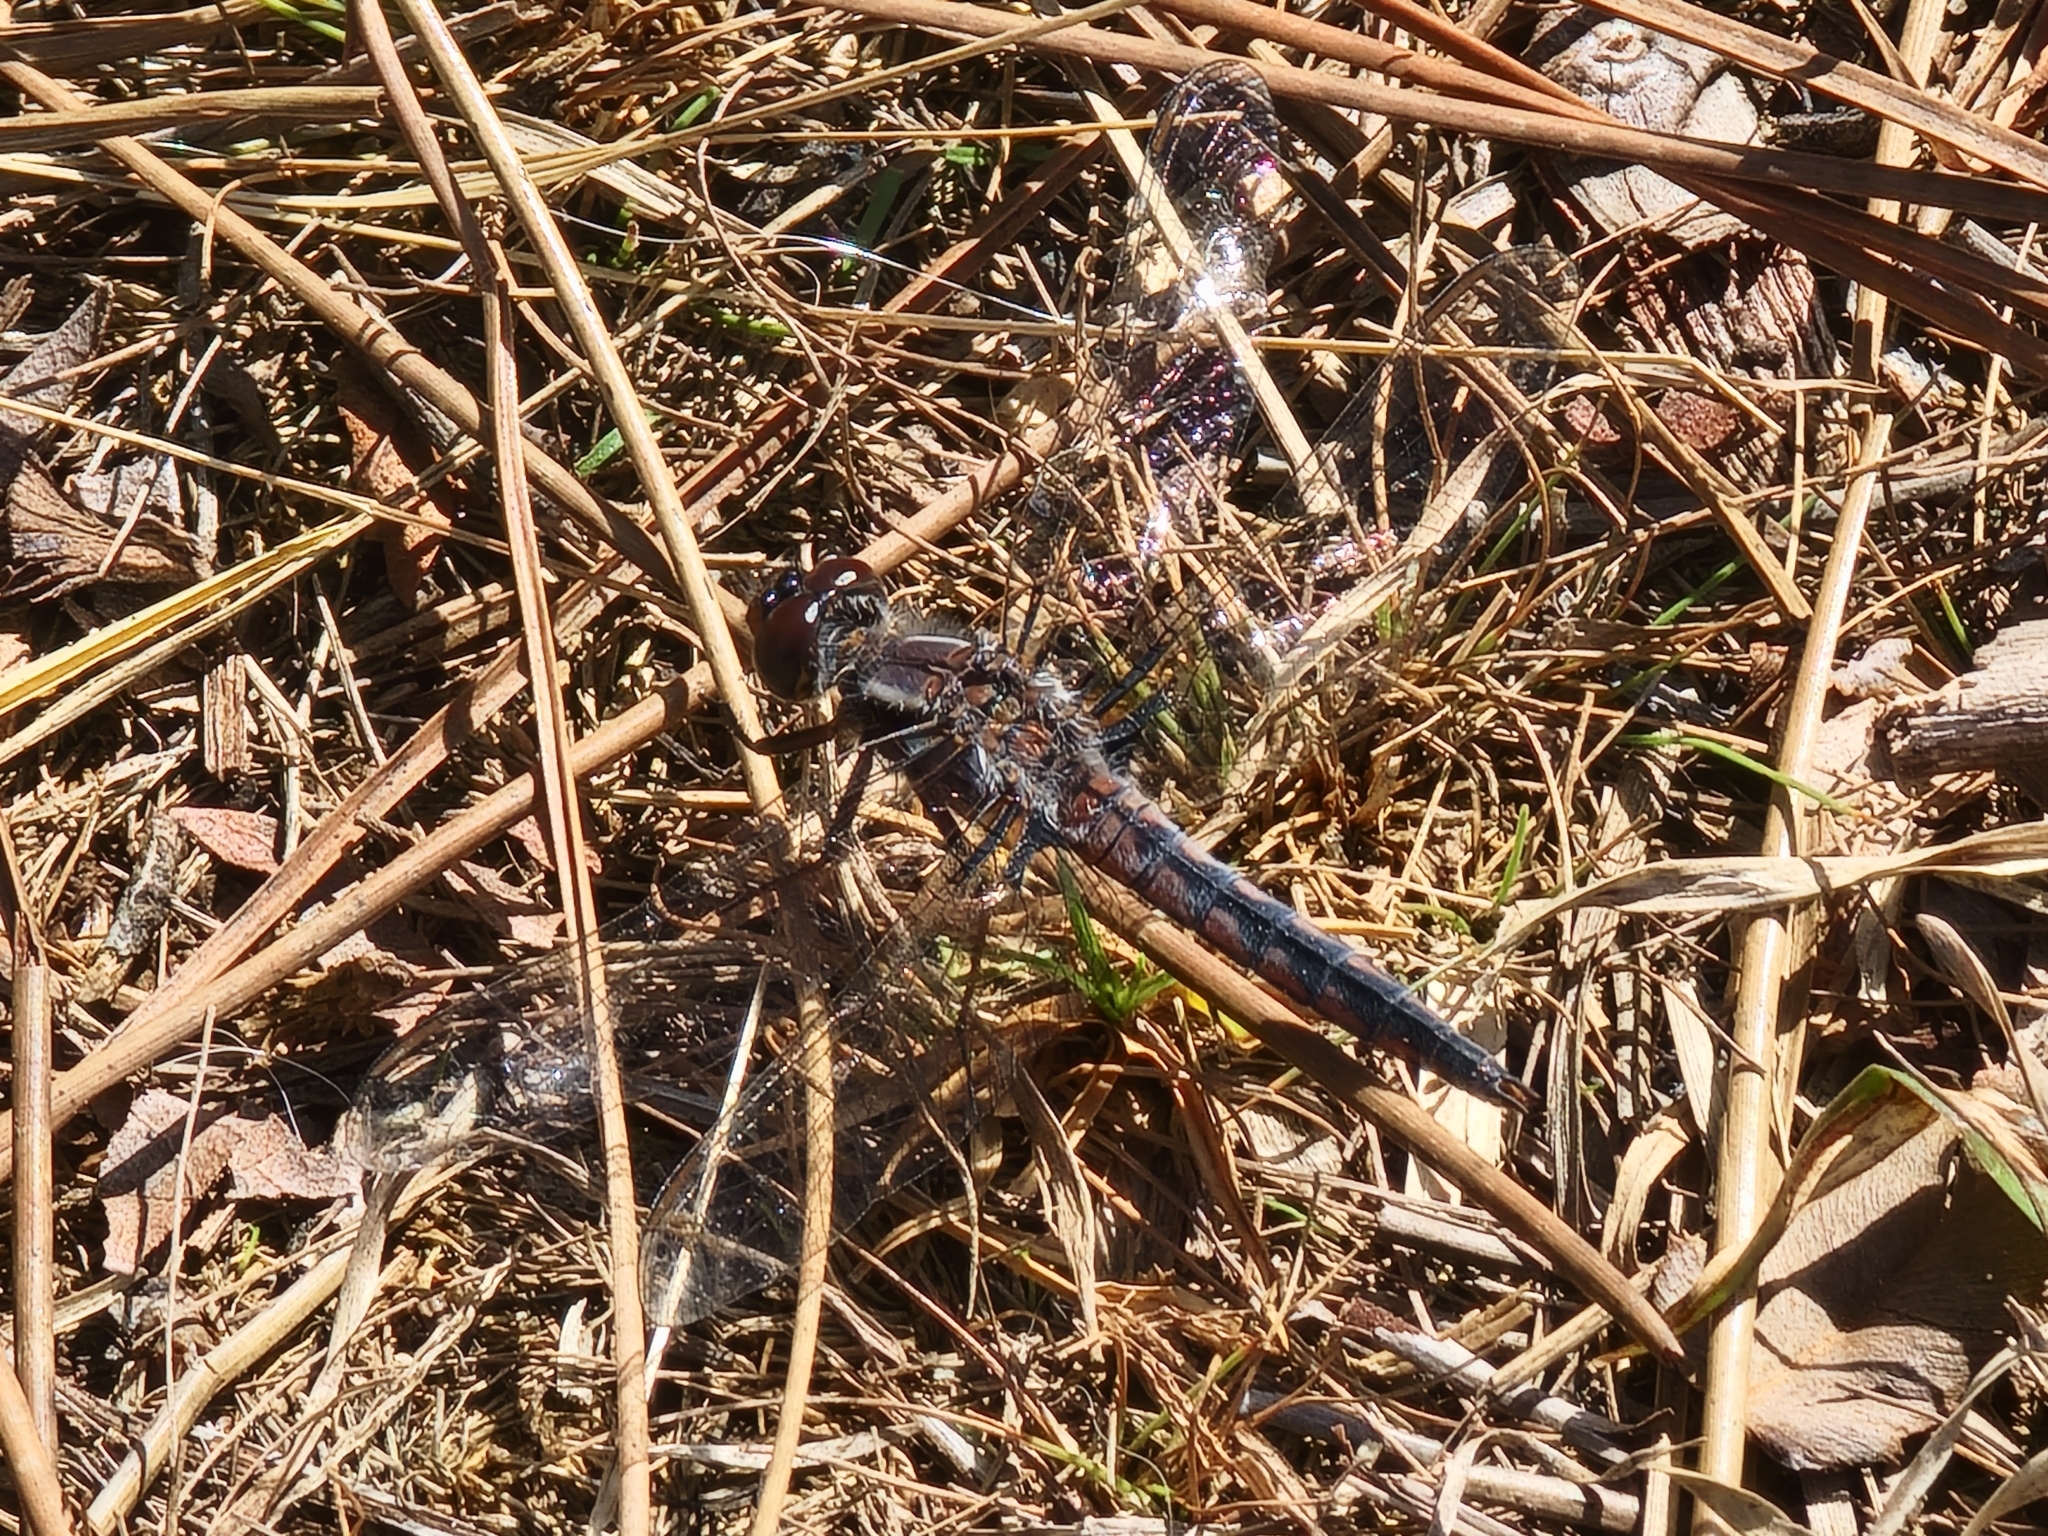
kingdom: Animalia
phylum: Arthropoda
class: Insecta
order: Odonata
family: Libellulidae
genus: Ladona
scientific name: Ladona deplanata
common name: Blue corporal
